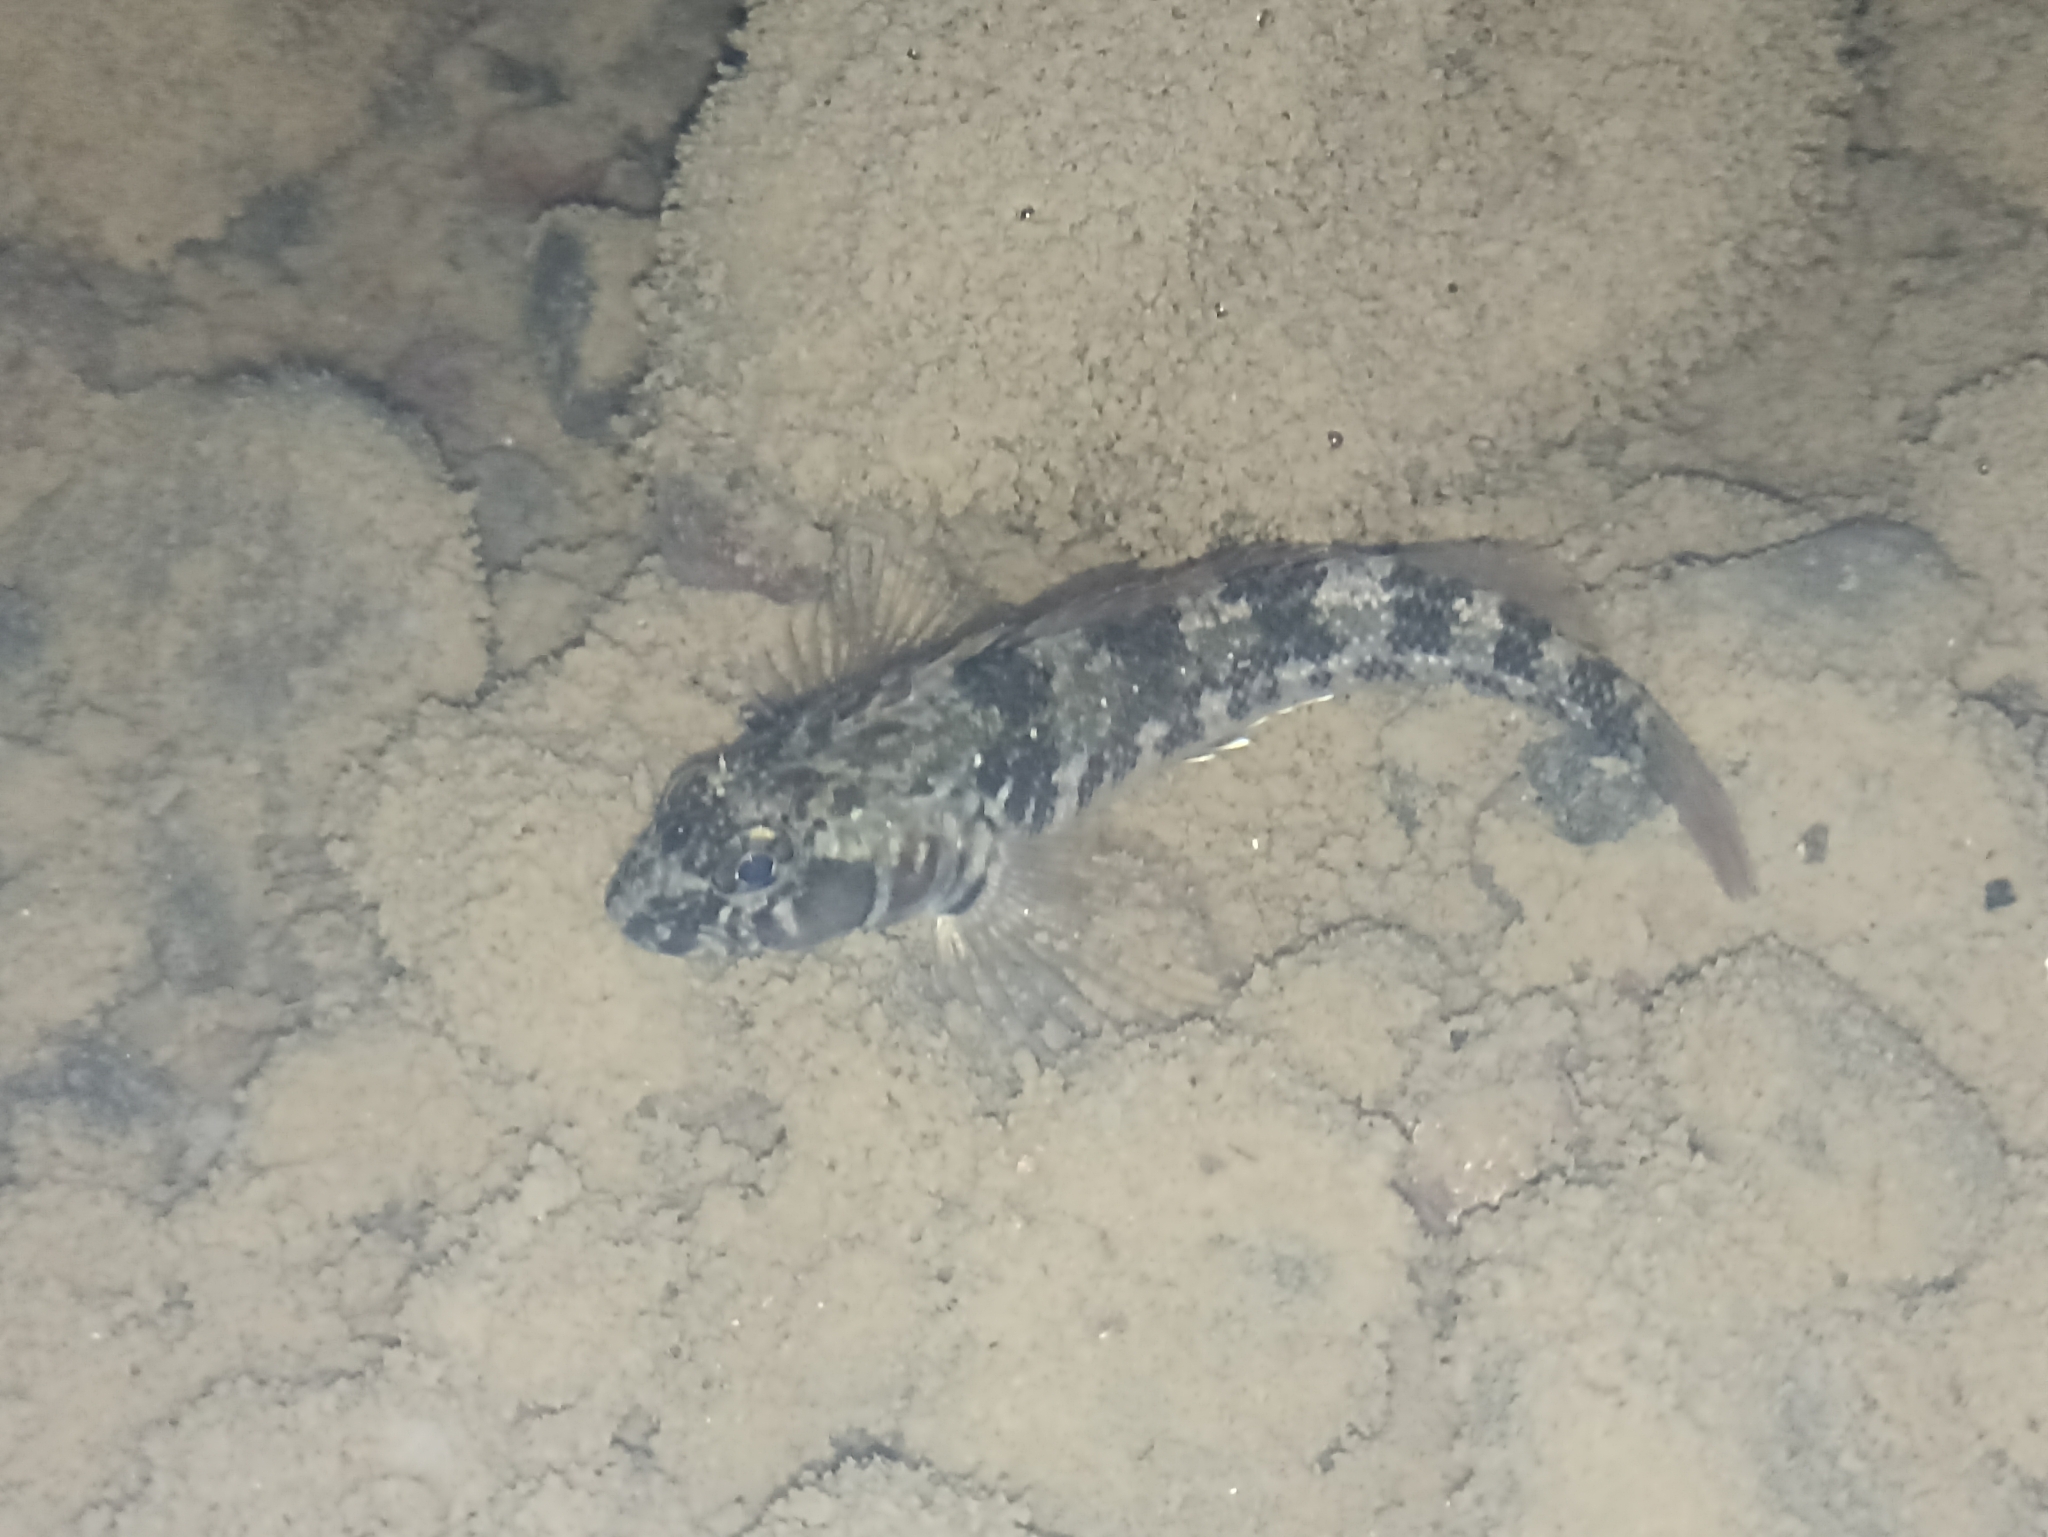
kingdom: Animalia
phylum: Chordata
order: Perciformes
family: Tripterygiidae
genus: Forsterygion
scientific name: Forsterygion nigripenne
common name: Cockabully
